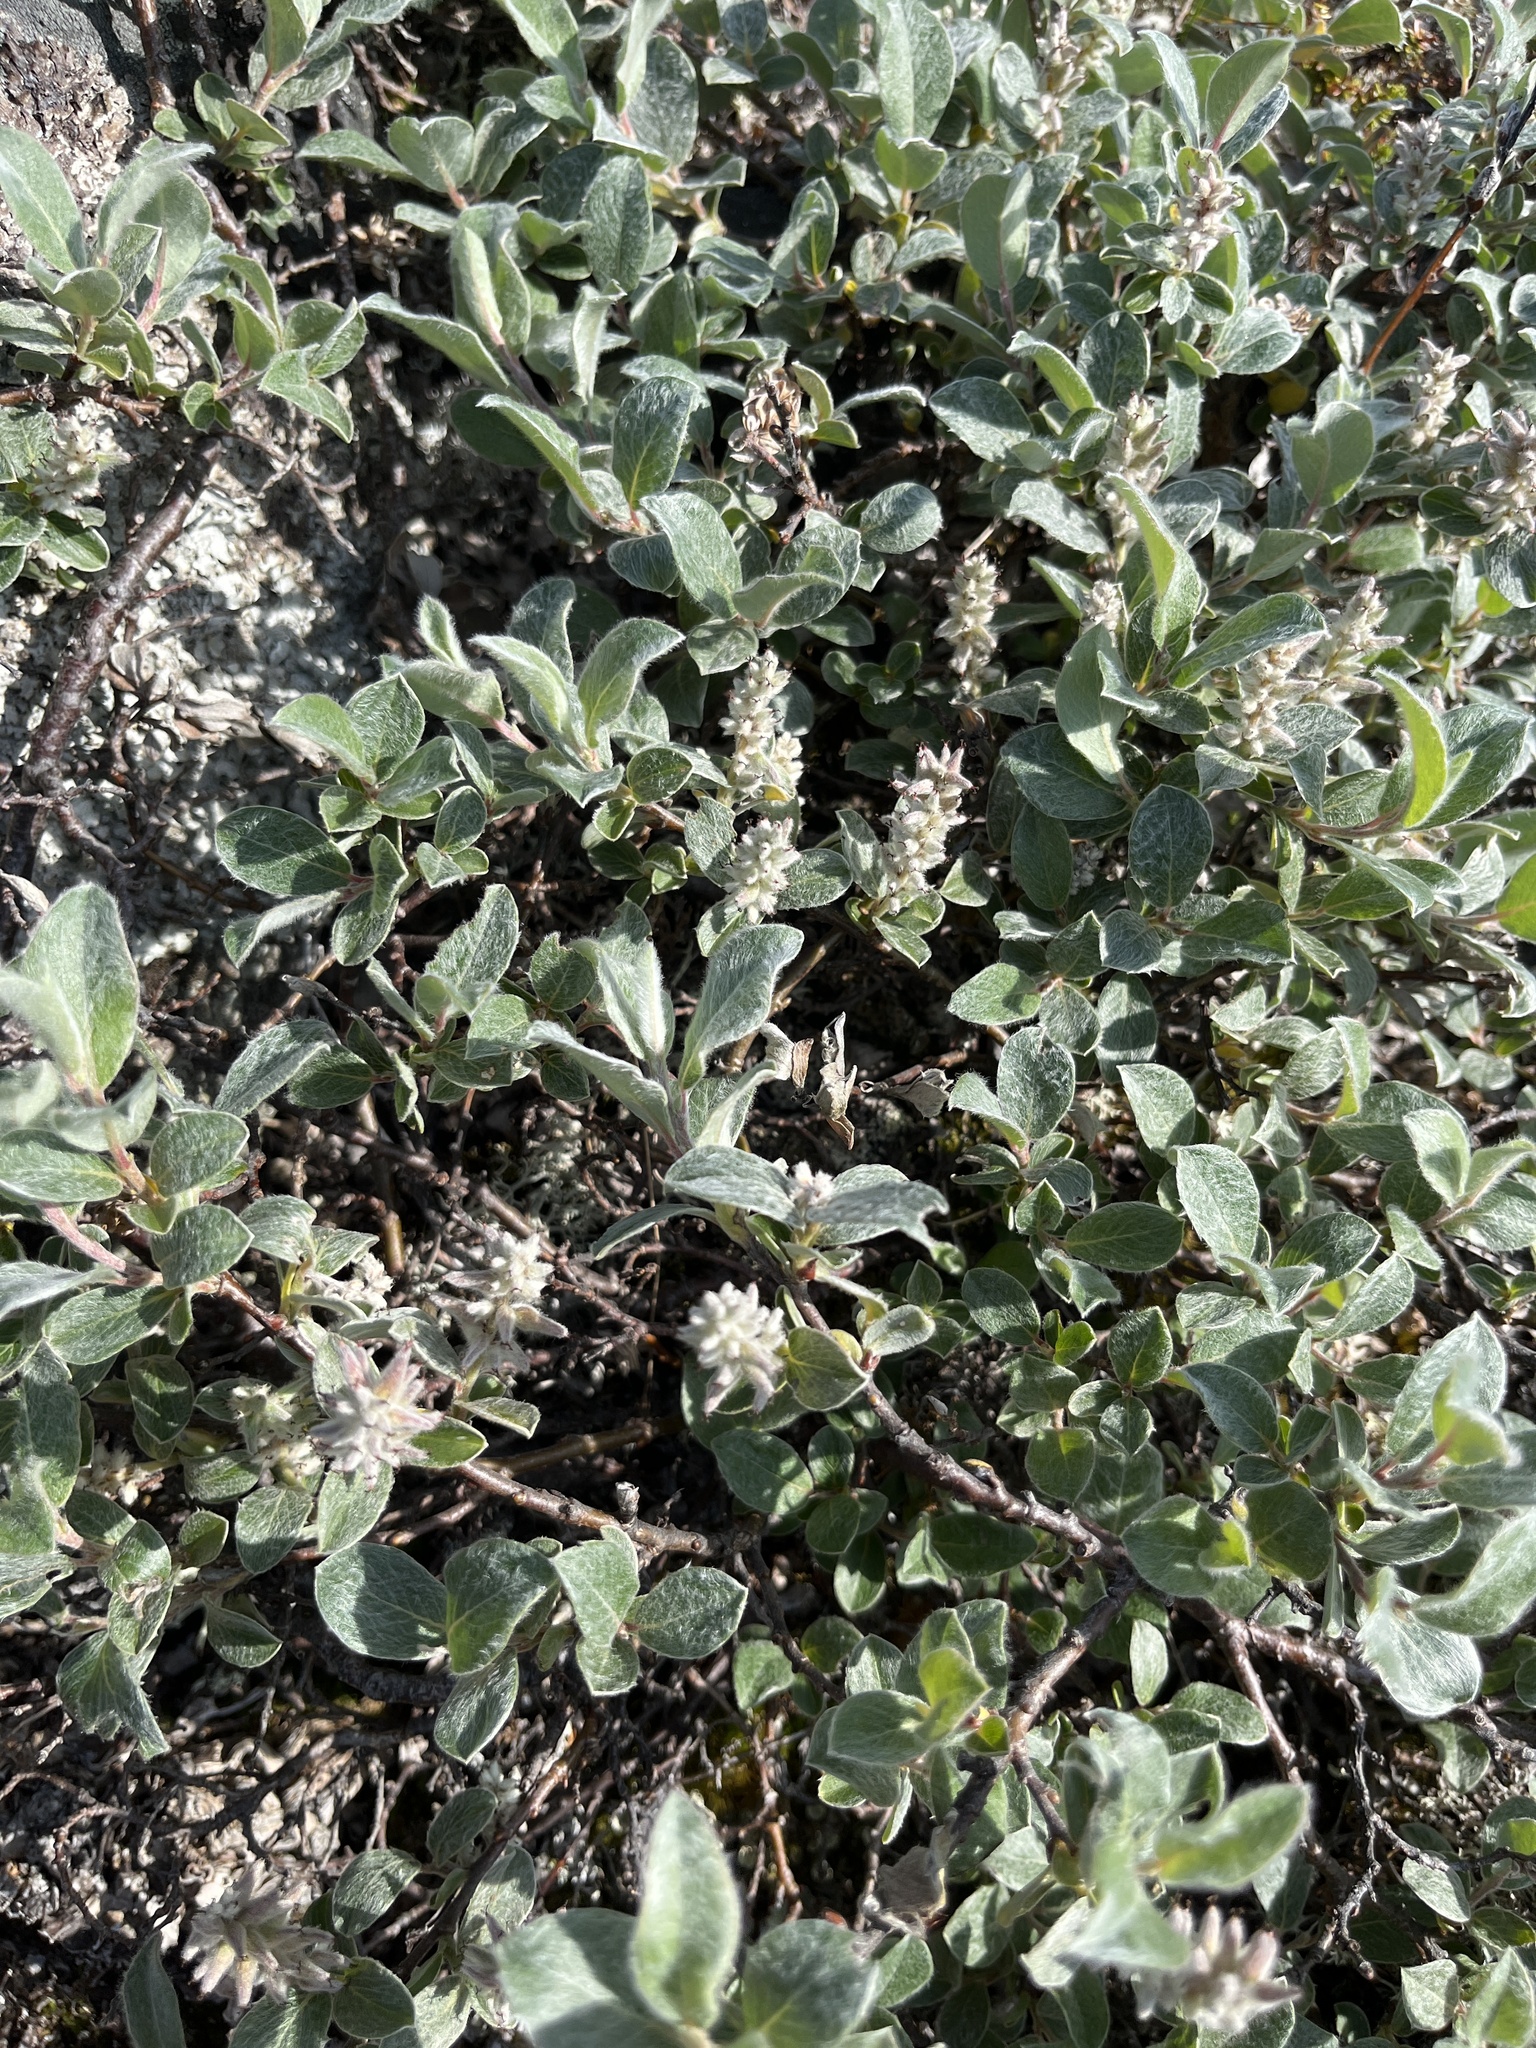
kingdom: Plantae
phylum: Tracheophyta
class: Magnoliopsida
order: Malpighiales
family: Salicaceae
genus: Salix
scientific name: Salix glauca
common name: Glaucous willow
